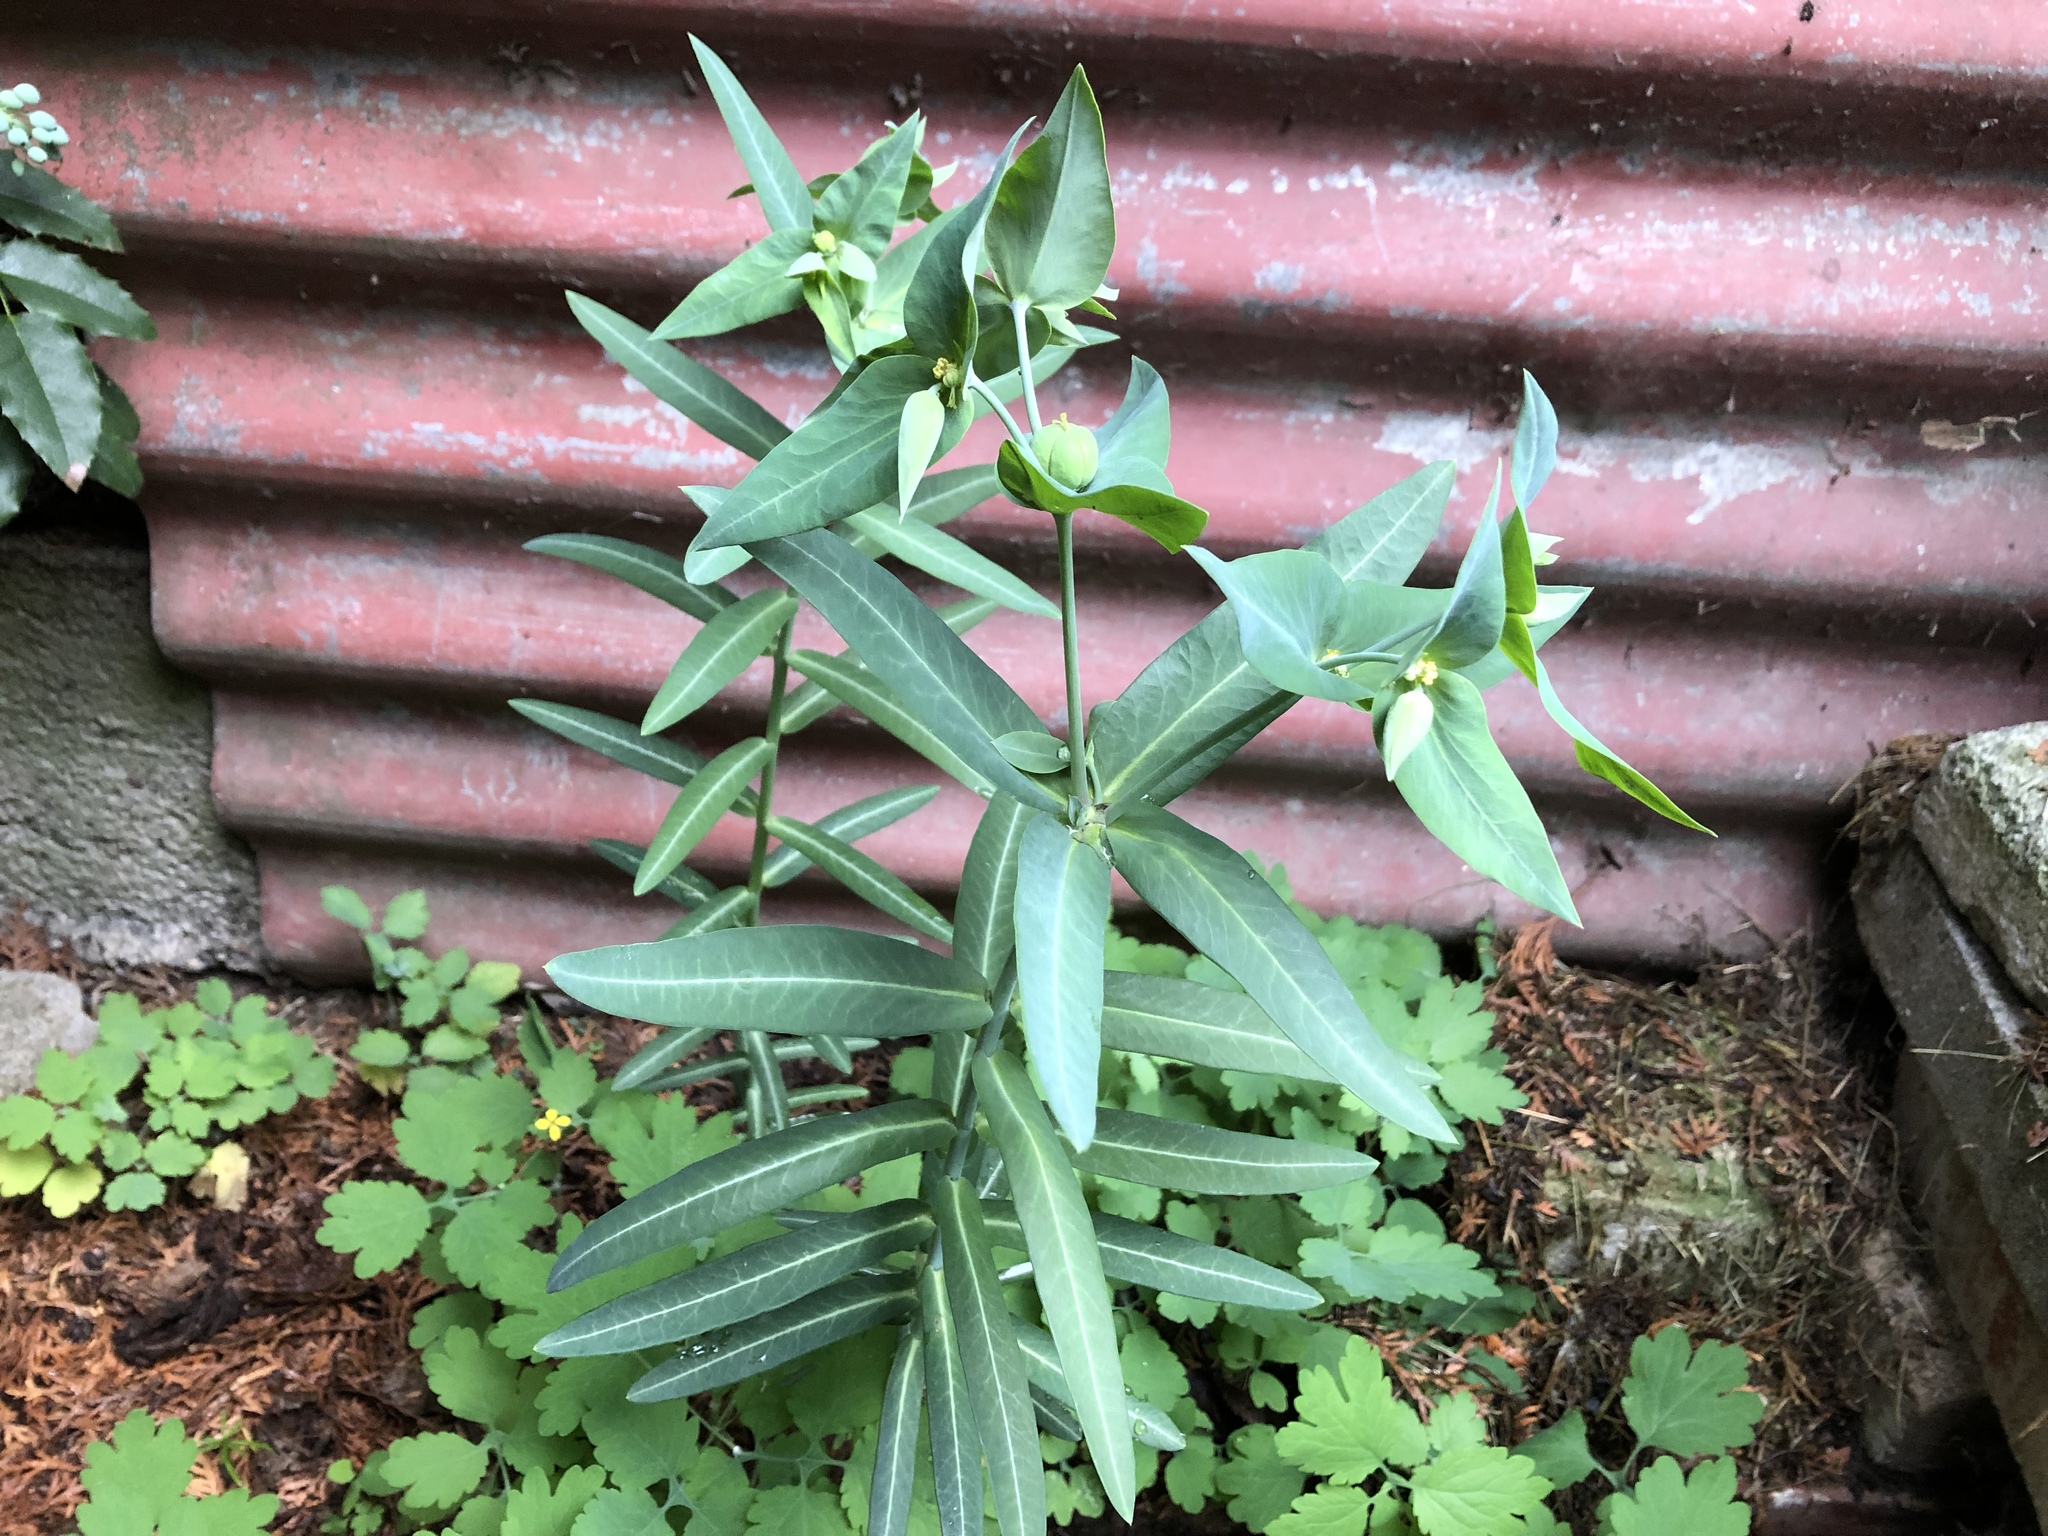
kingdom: Plantae
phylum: Tracheophyta
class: Magnoliopsida
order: Malpighiales
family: Euphorbiaceae
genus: Euphorbia
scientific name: Euphorbia lathyris
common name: Caper spurge
